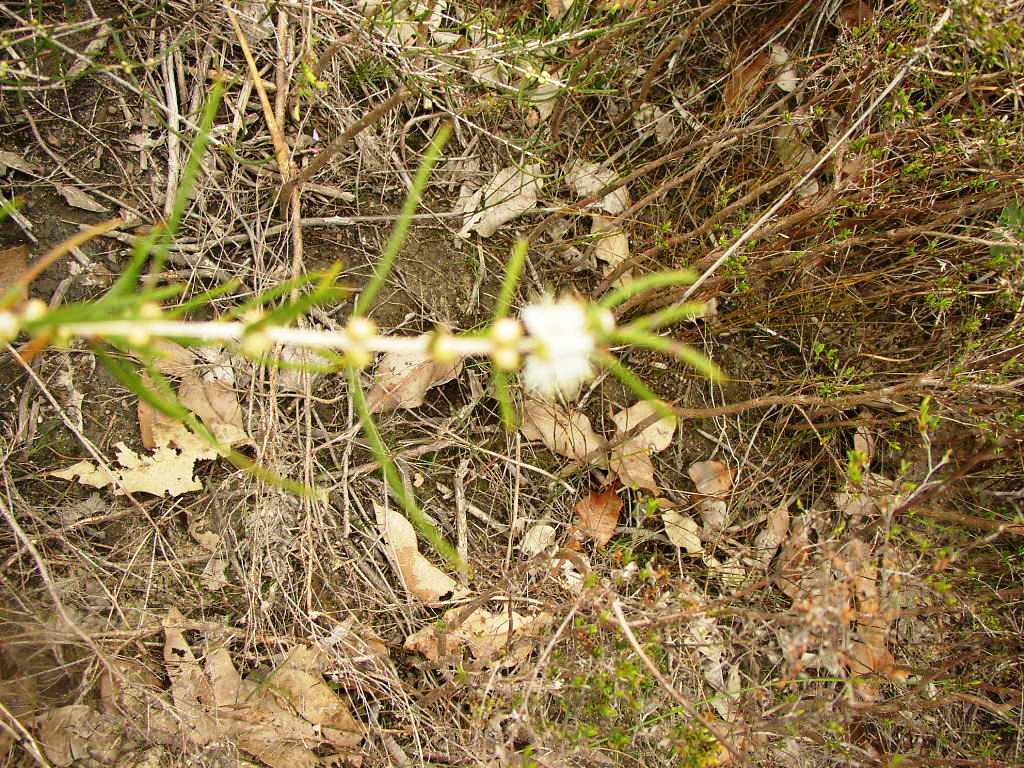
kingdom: Plantae
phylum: Tracheophyta
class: Magnoliopsida
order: Myrtales
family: Myrtaceae
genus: Hypocalymma
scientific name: Hypocalymma angustifolium
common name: White myrtle
